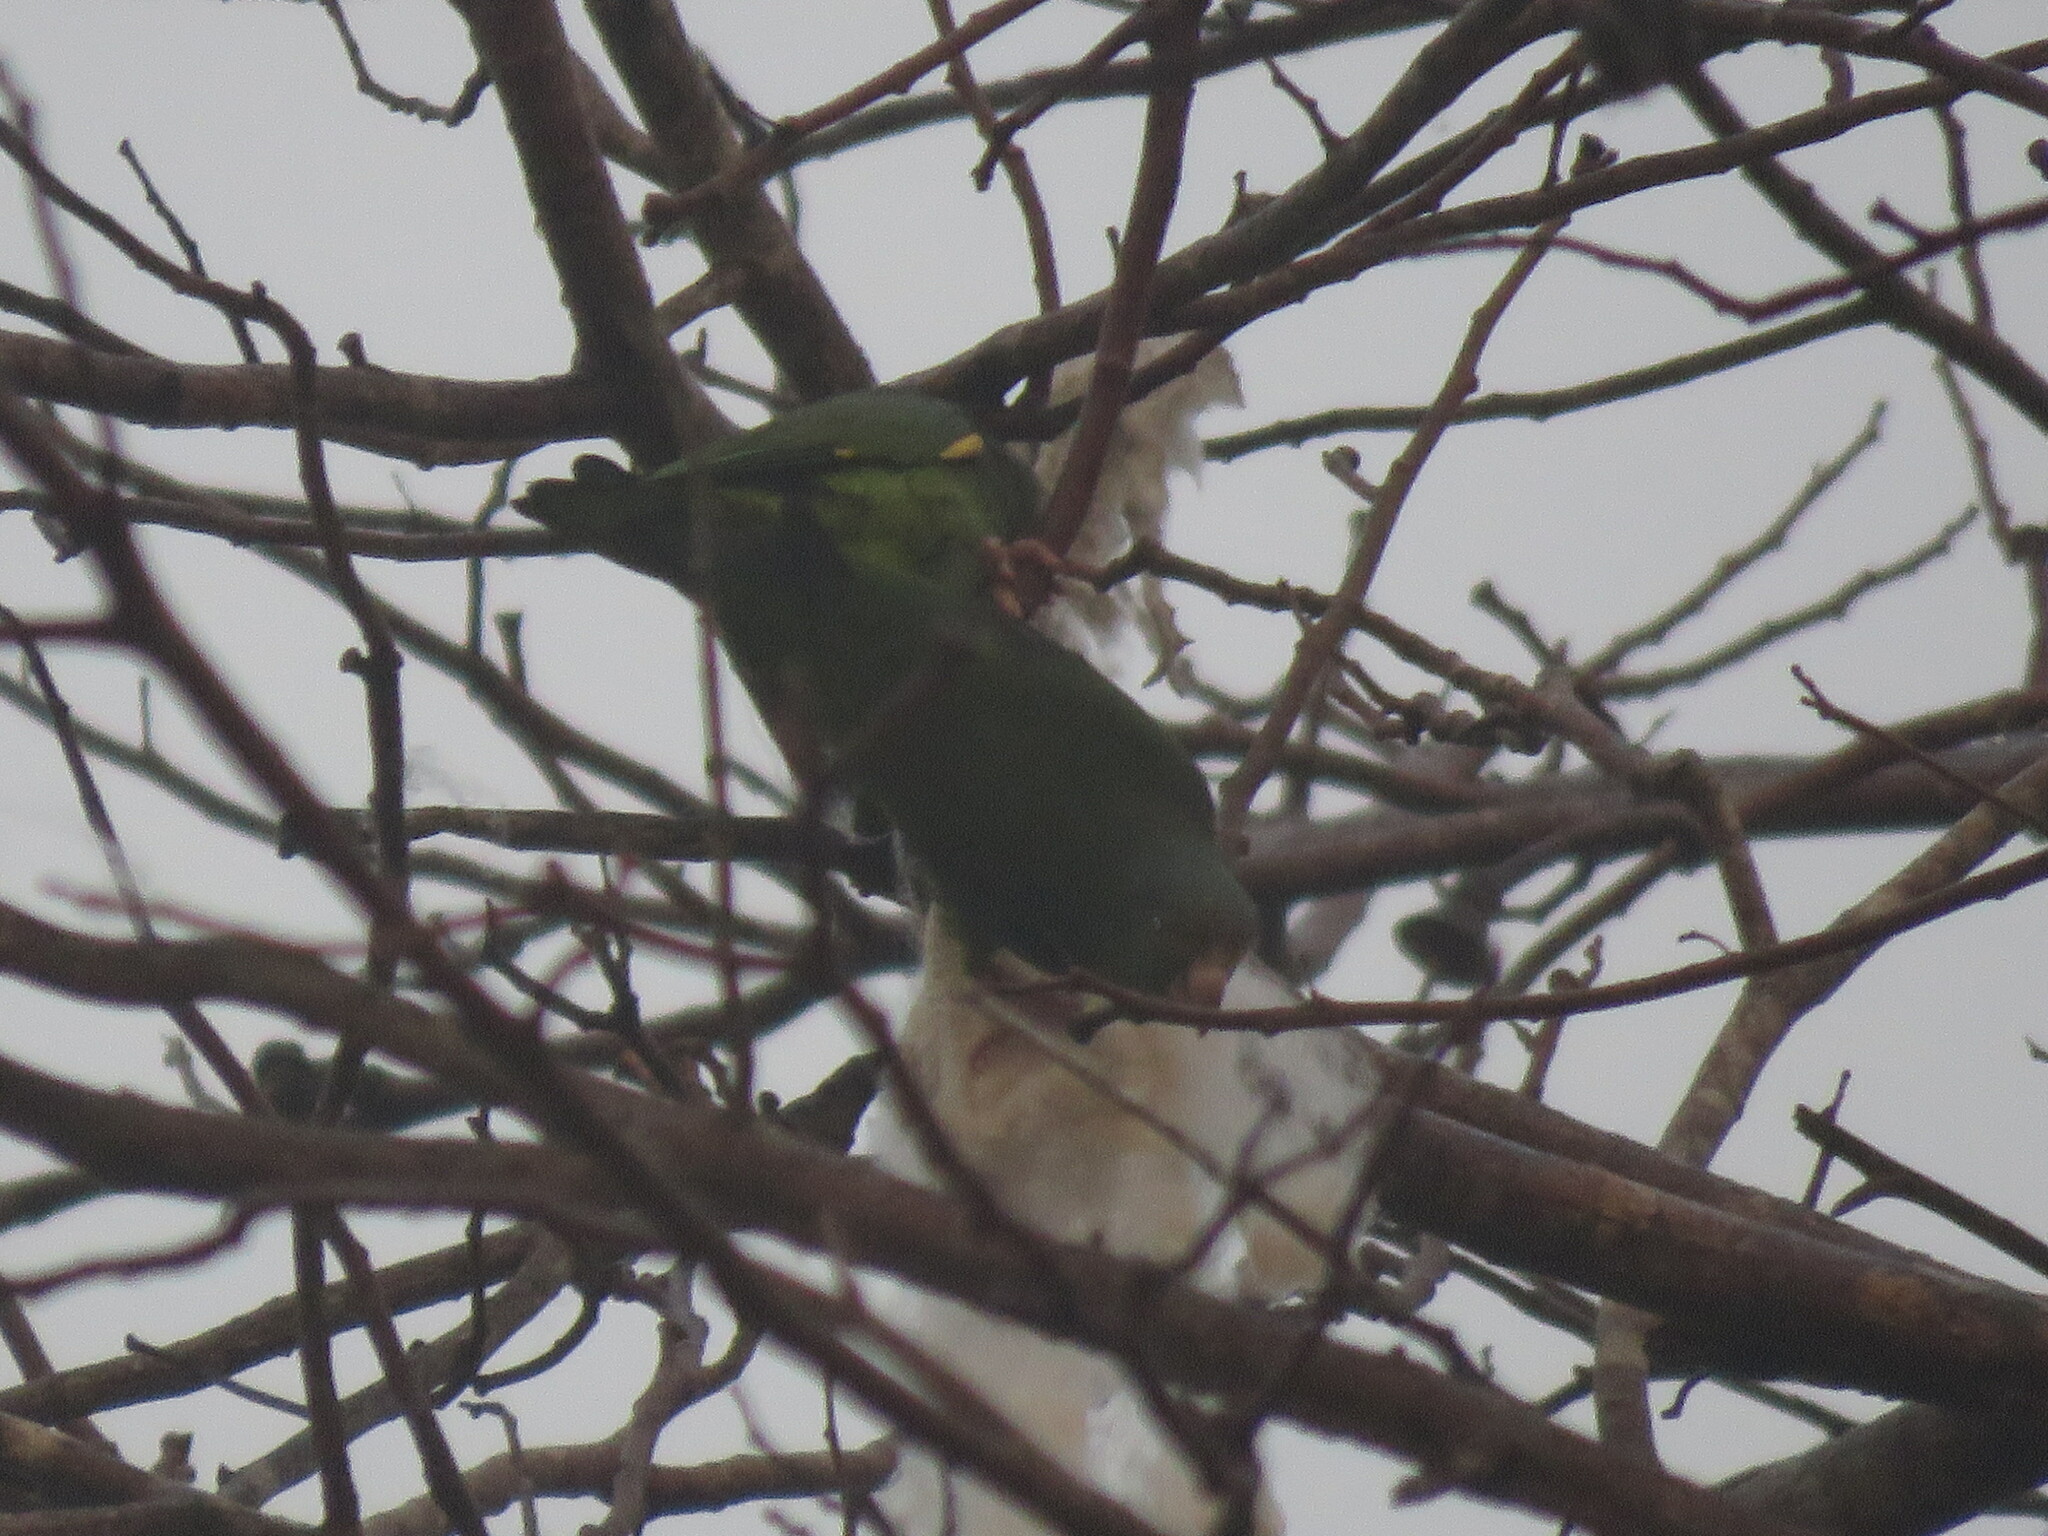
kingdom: Animalia
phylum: Chordata
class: Aves
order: Psittaciformes
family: Psittacidae
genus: Brotogeris
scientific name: Brotogeris cyanoptera
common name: Cobalt-winged parakeet
